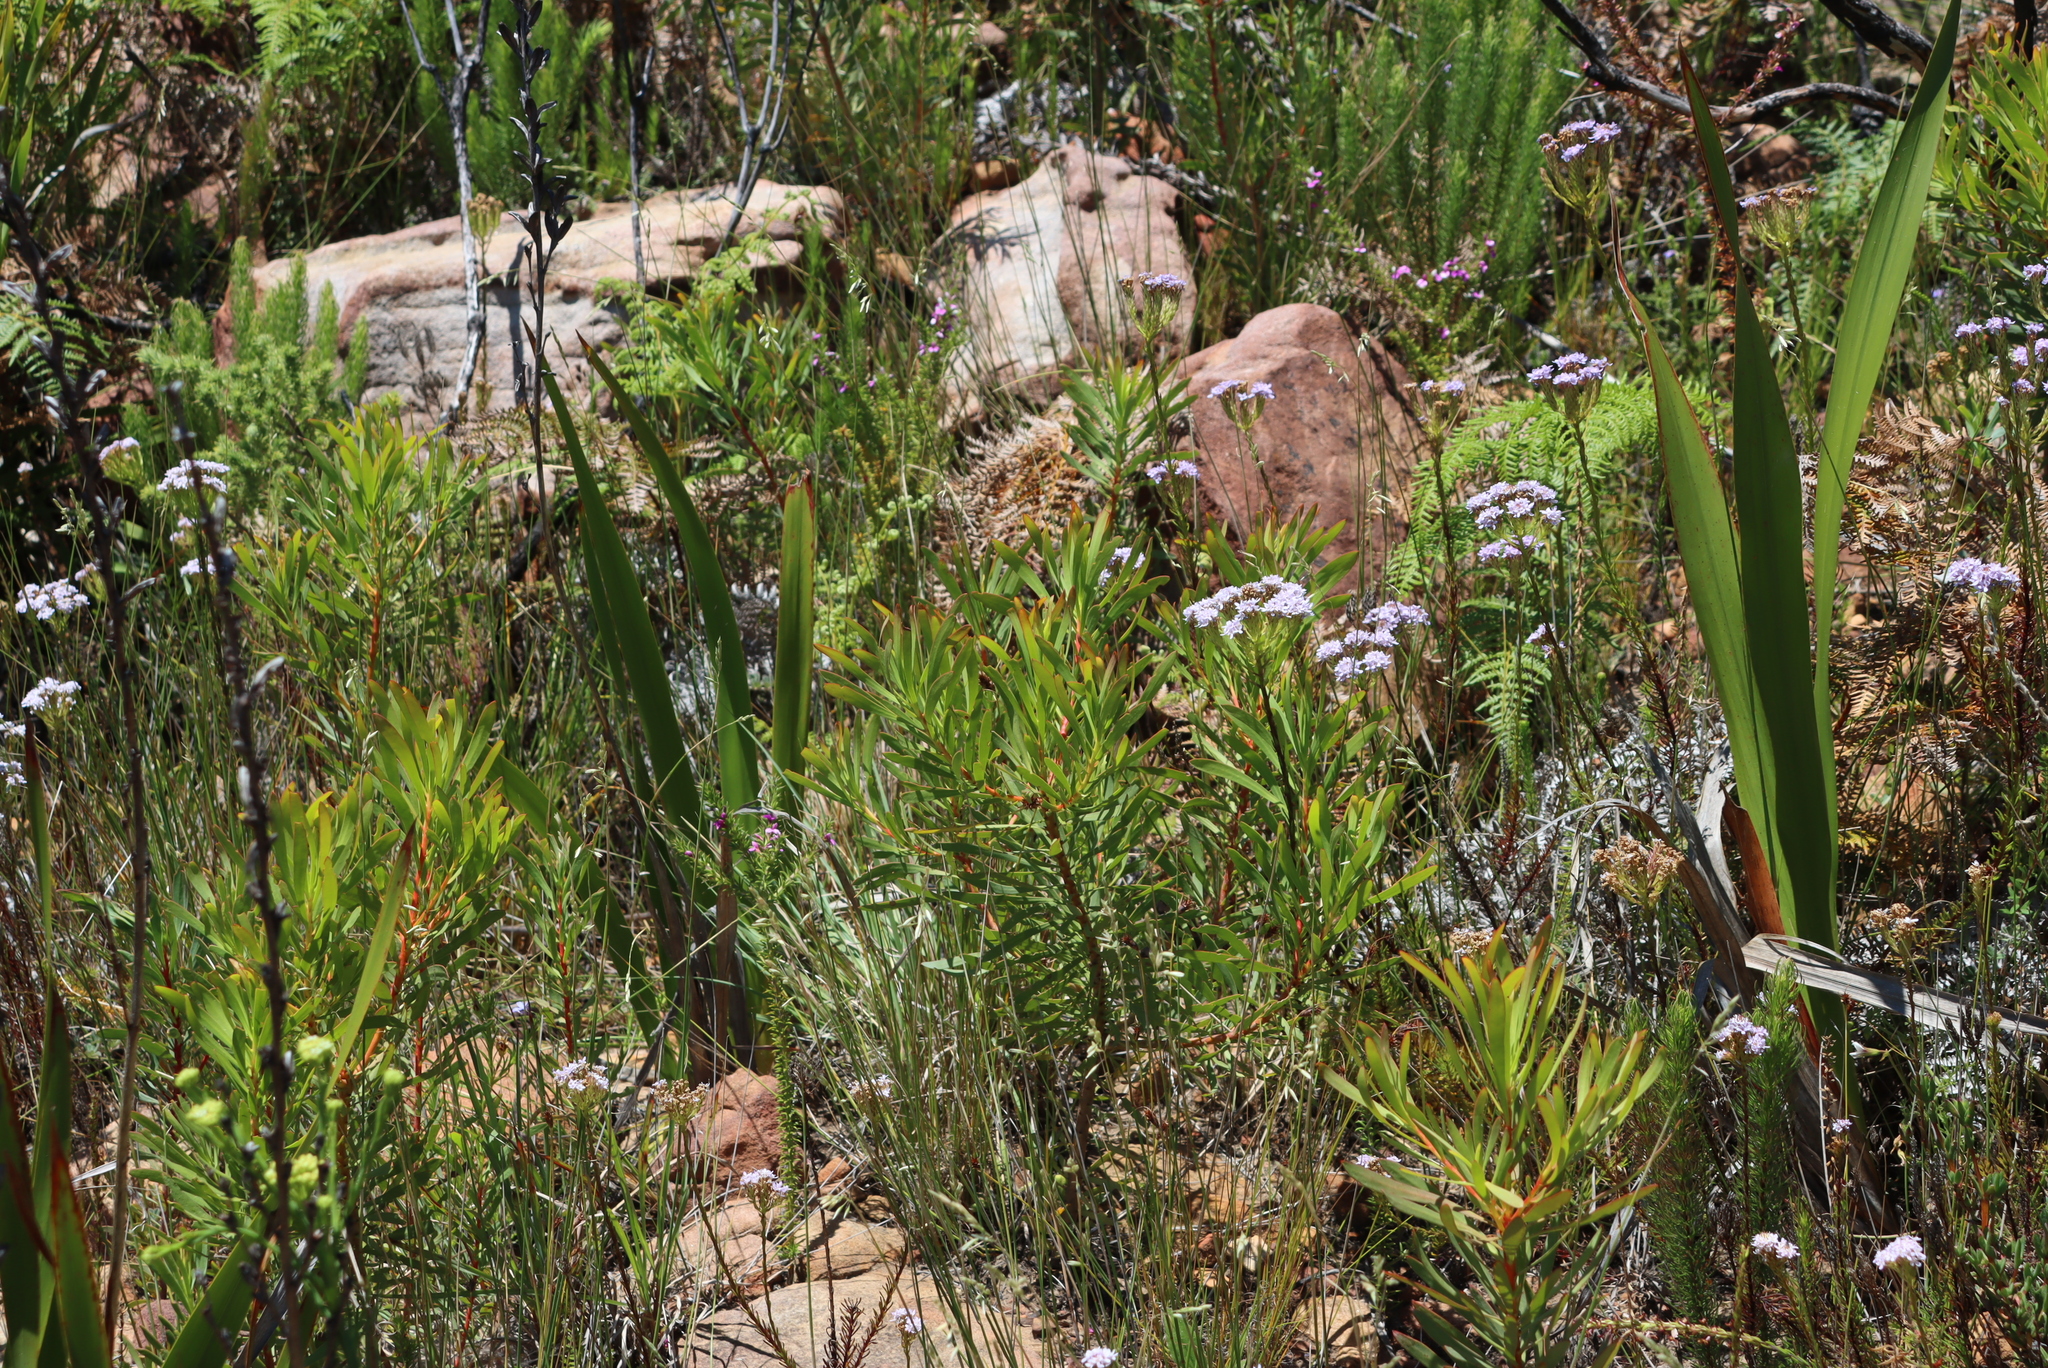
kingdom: Plantae
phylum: Tracheophyta
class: Magnoliopsida
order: Proteales
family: Proteaceae
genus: Protea
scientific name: Protea repens
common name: Sugarbush
